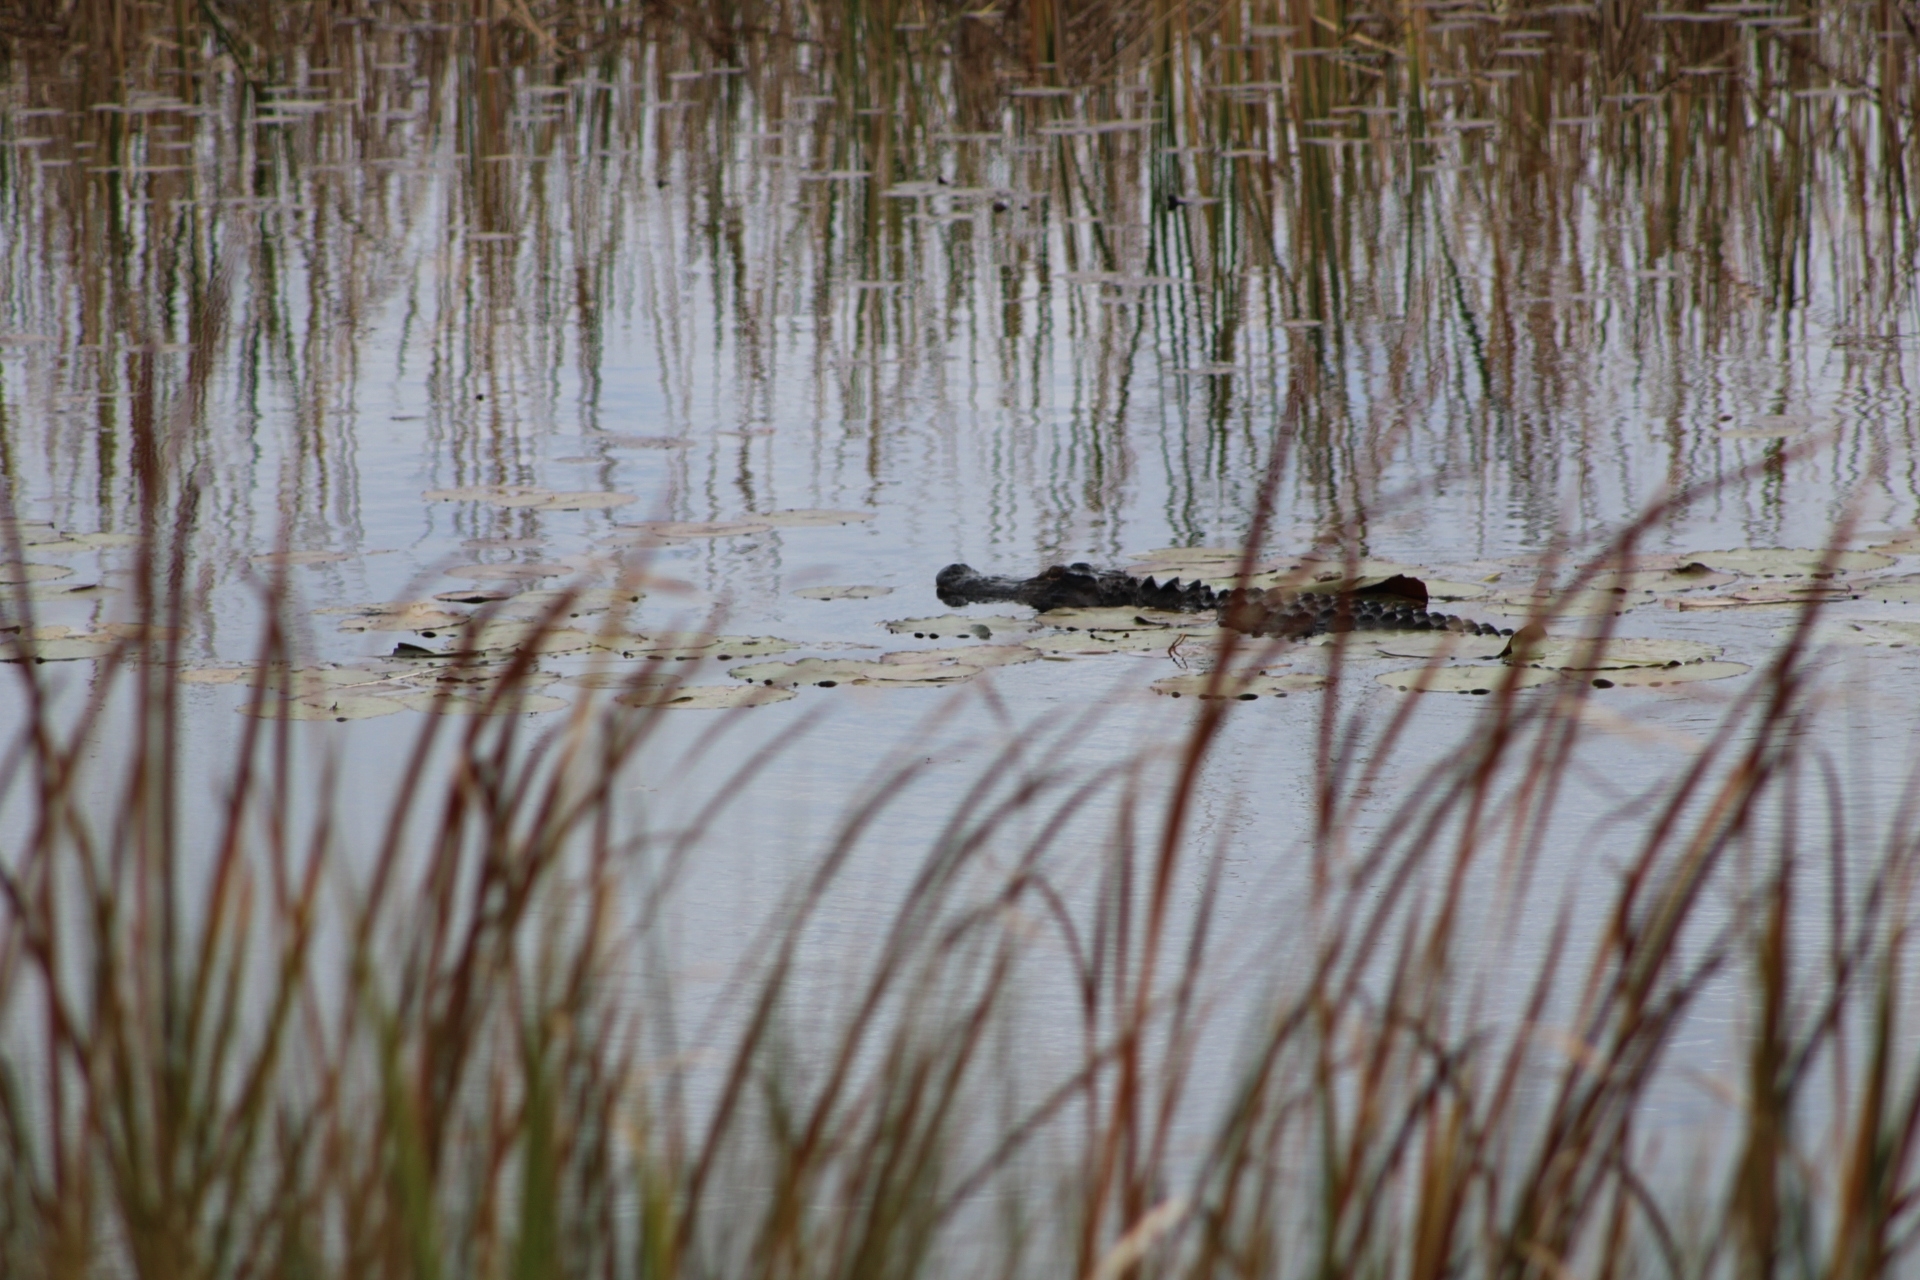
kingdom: Animalia
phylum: Chordata
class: Crocodylia
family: Alligatoridae
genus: Alligator
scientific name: Alligator mississippiensis
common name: American alligator
